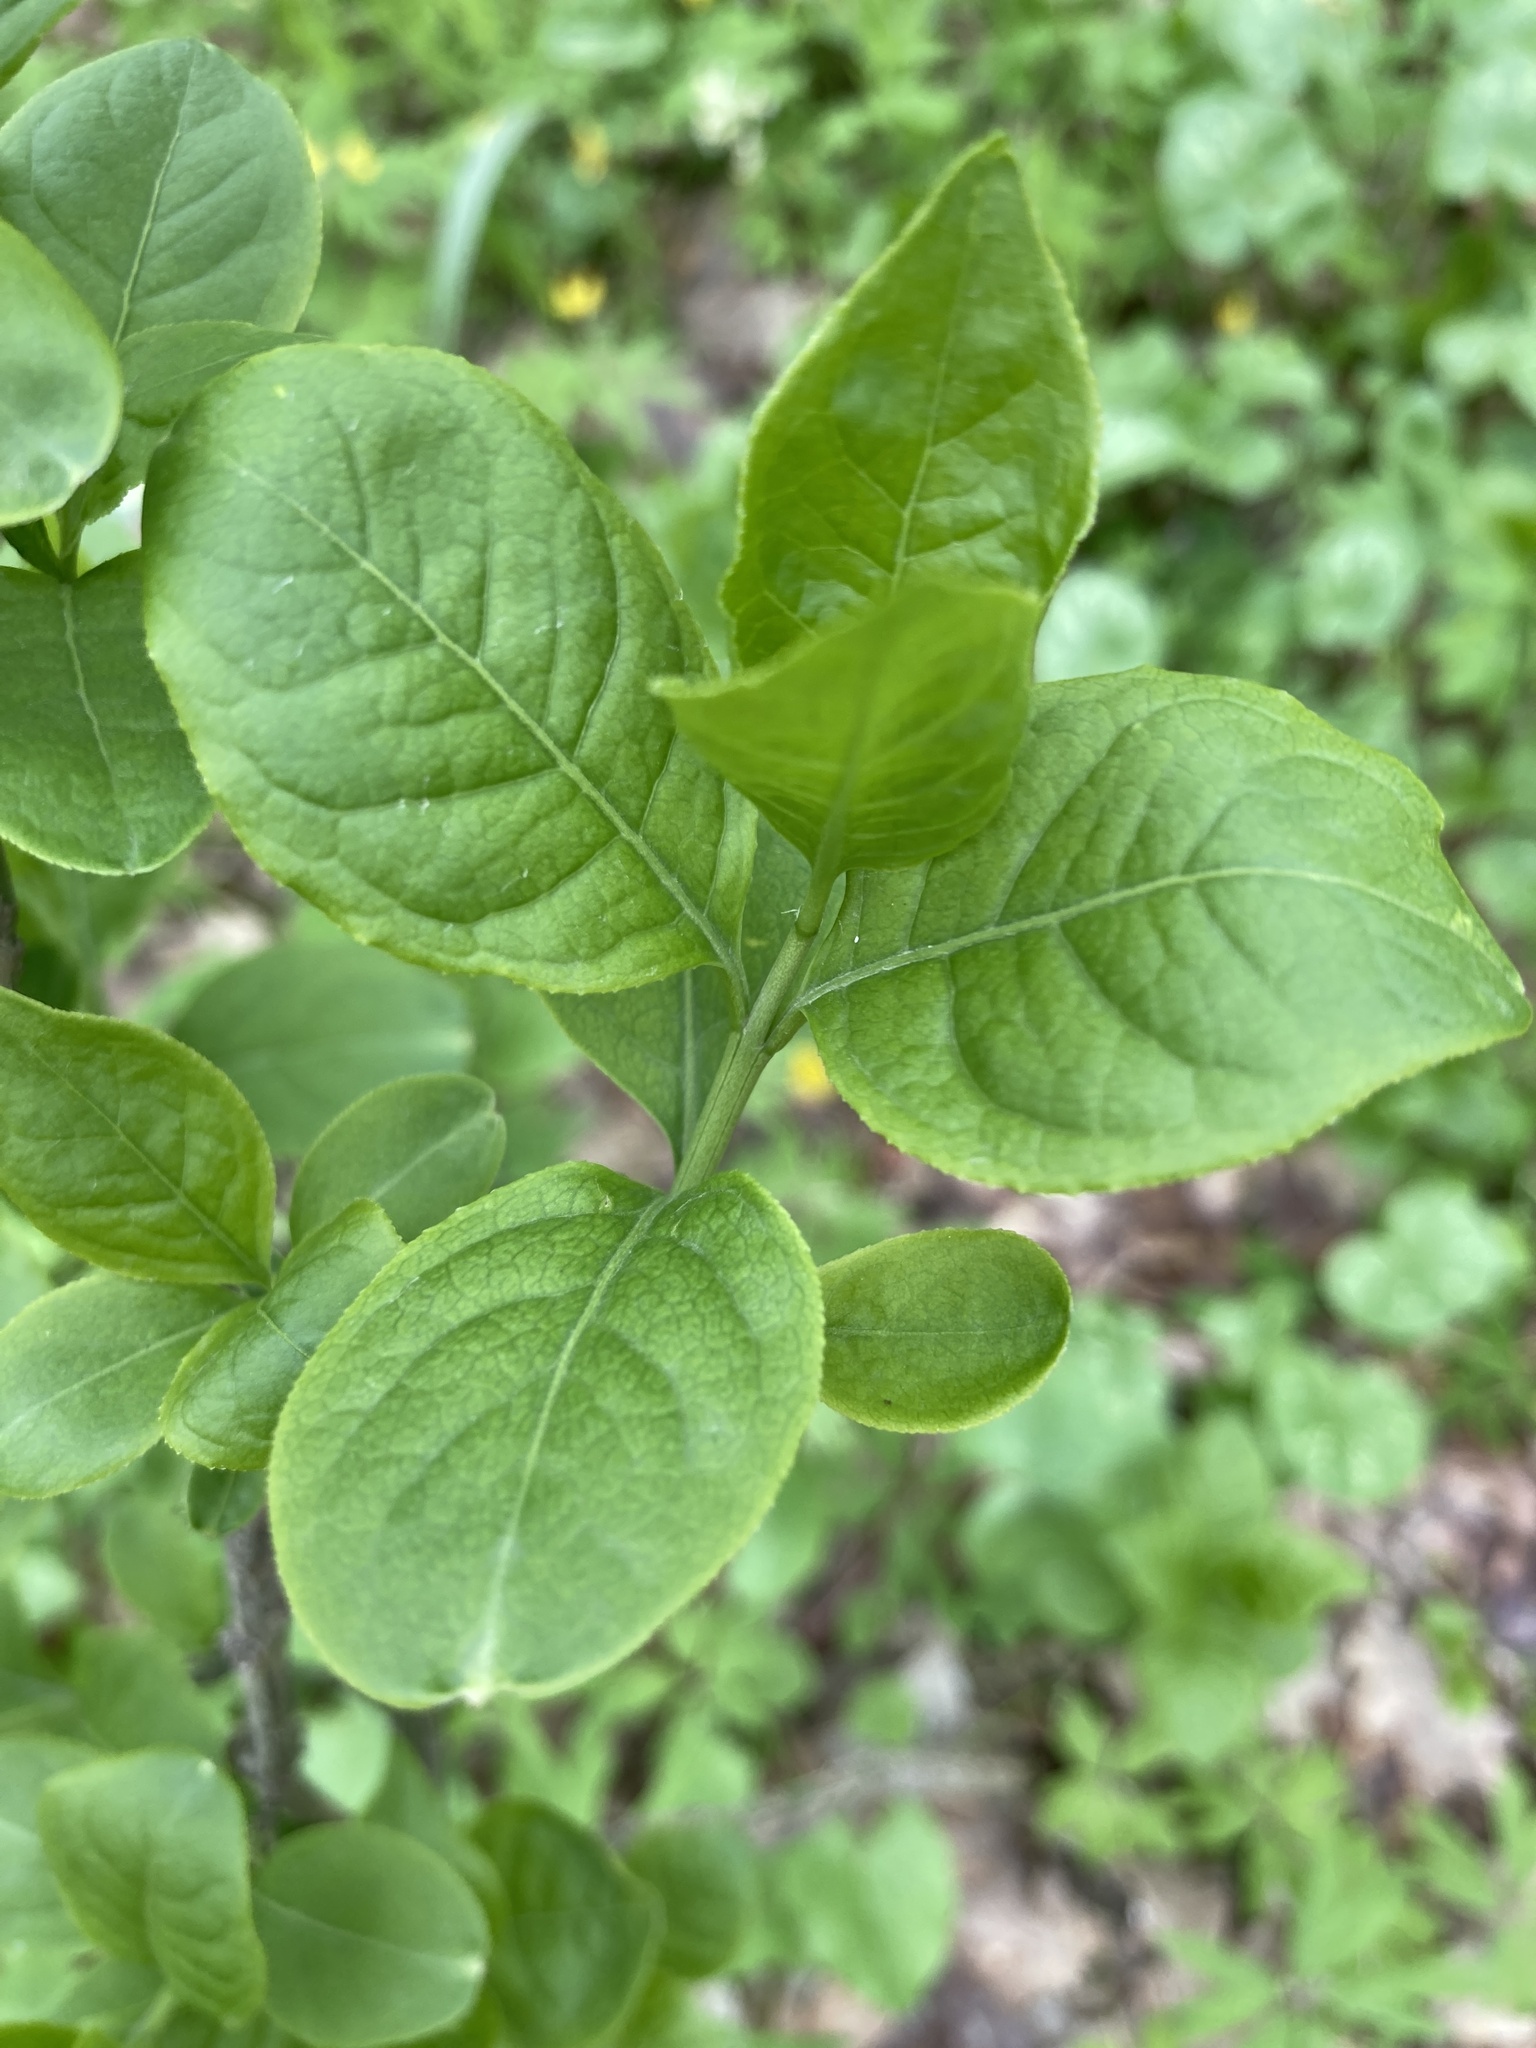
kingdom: Plantae
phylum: Tracheophyta
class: Magnoliopsida
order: Celastrales
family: Celastraceae
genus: Euonymus
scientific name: Euonymus europaeus
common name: Spindle
